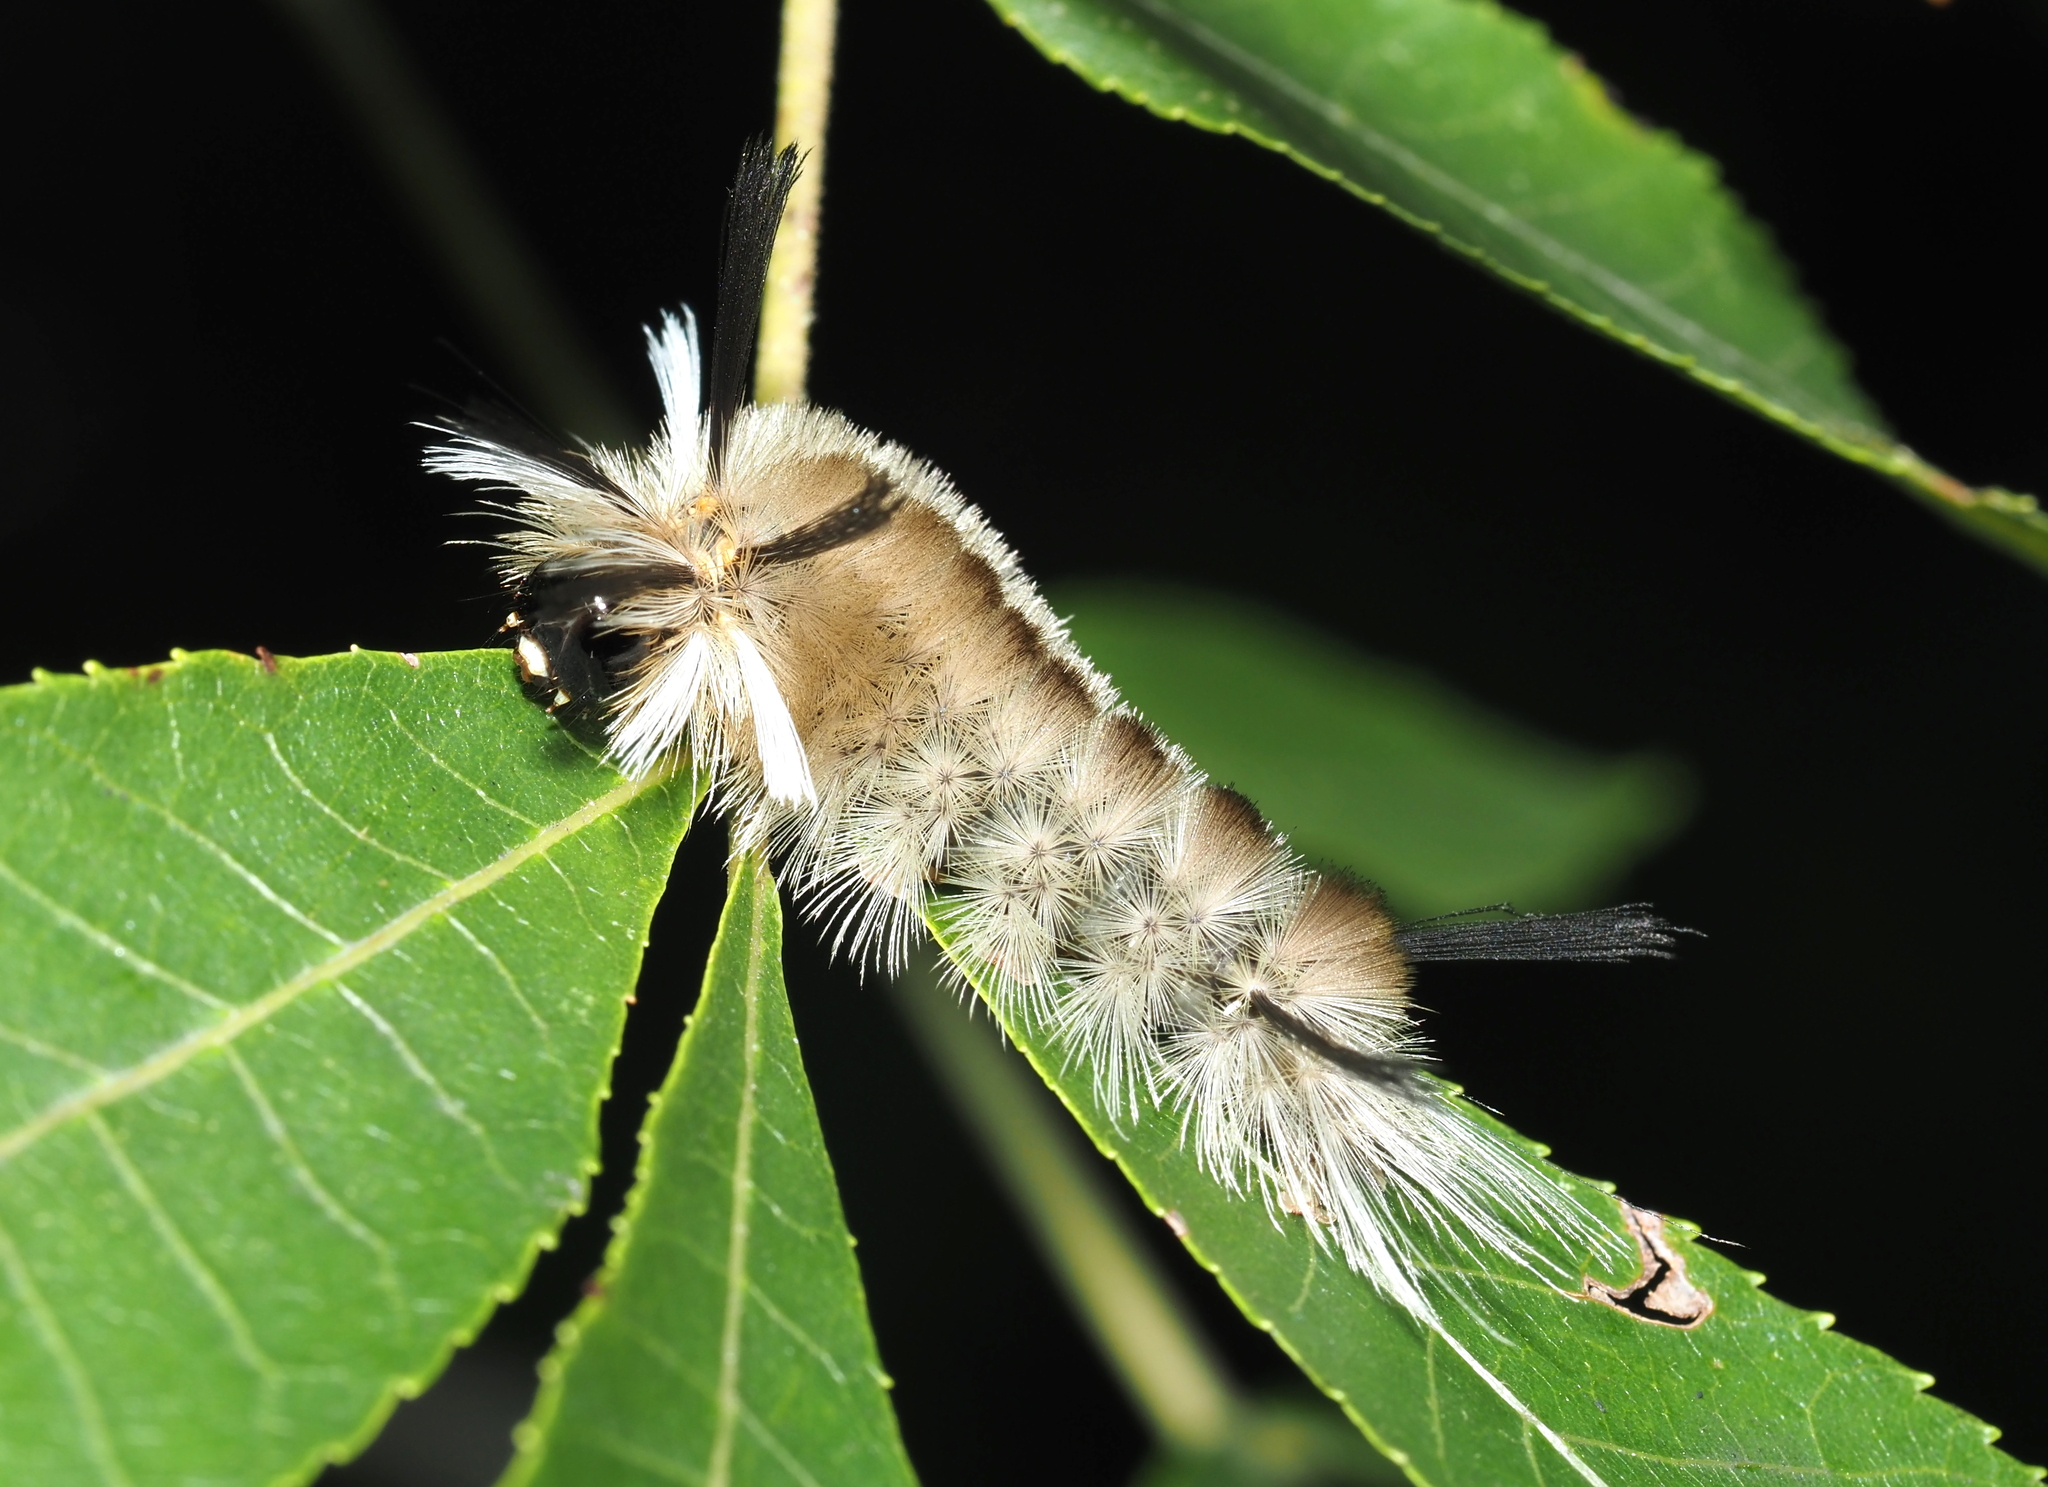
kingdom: Animalia
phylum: Arthropoda
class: Insecta
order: Lepidoptera
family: Erebidae
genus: Halysidota
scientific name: Halysidota tessellaris
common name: Banded tussock moth
